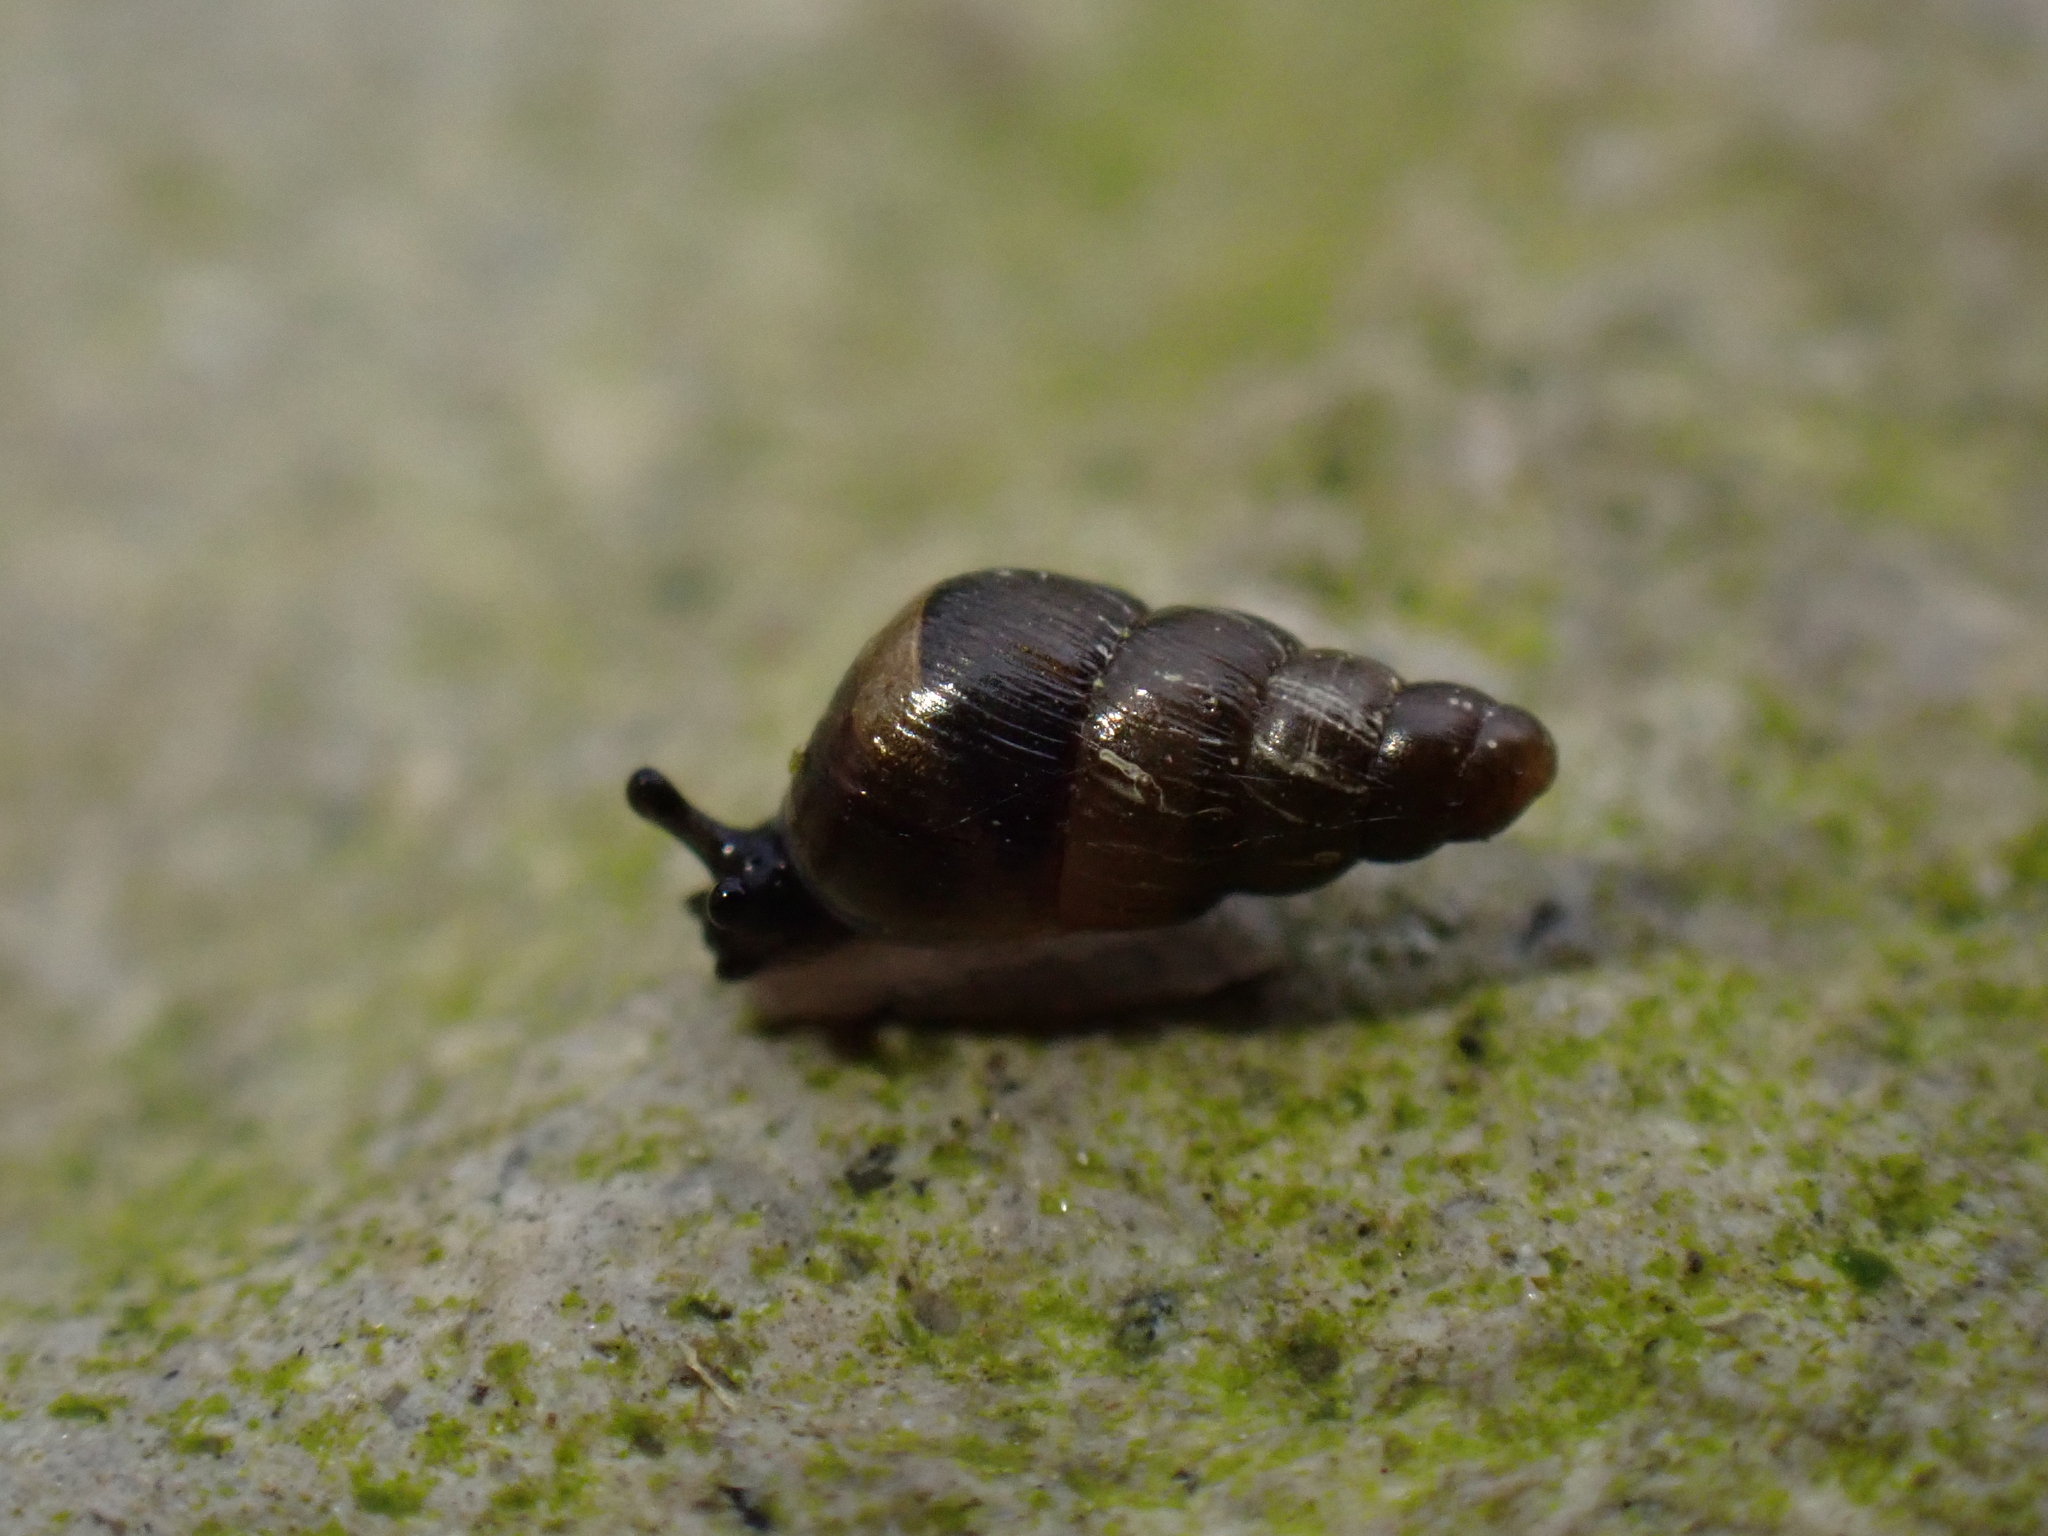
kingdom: Animalia
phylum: Mollusca
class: Gastropoda
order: Stylommatophora
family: Clausiliidae
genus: Balea
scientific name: Balea heydeni
